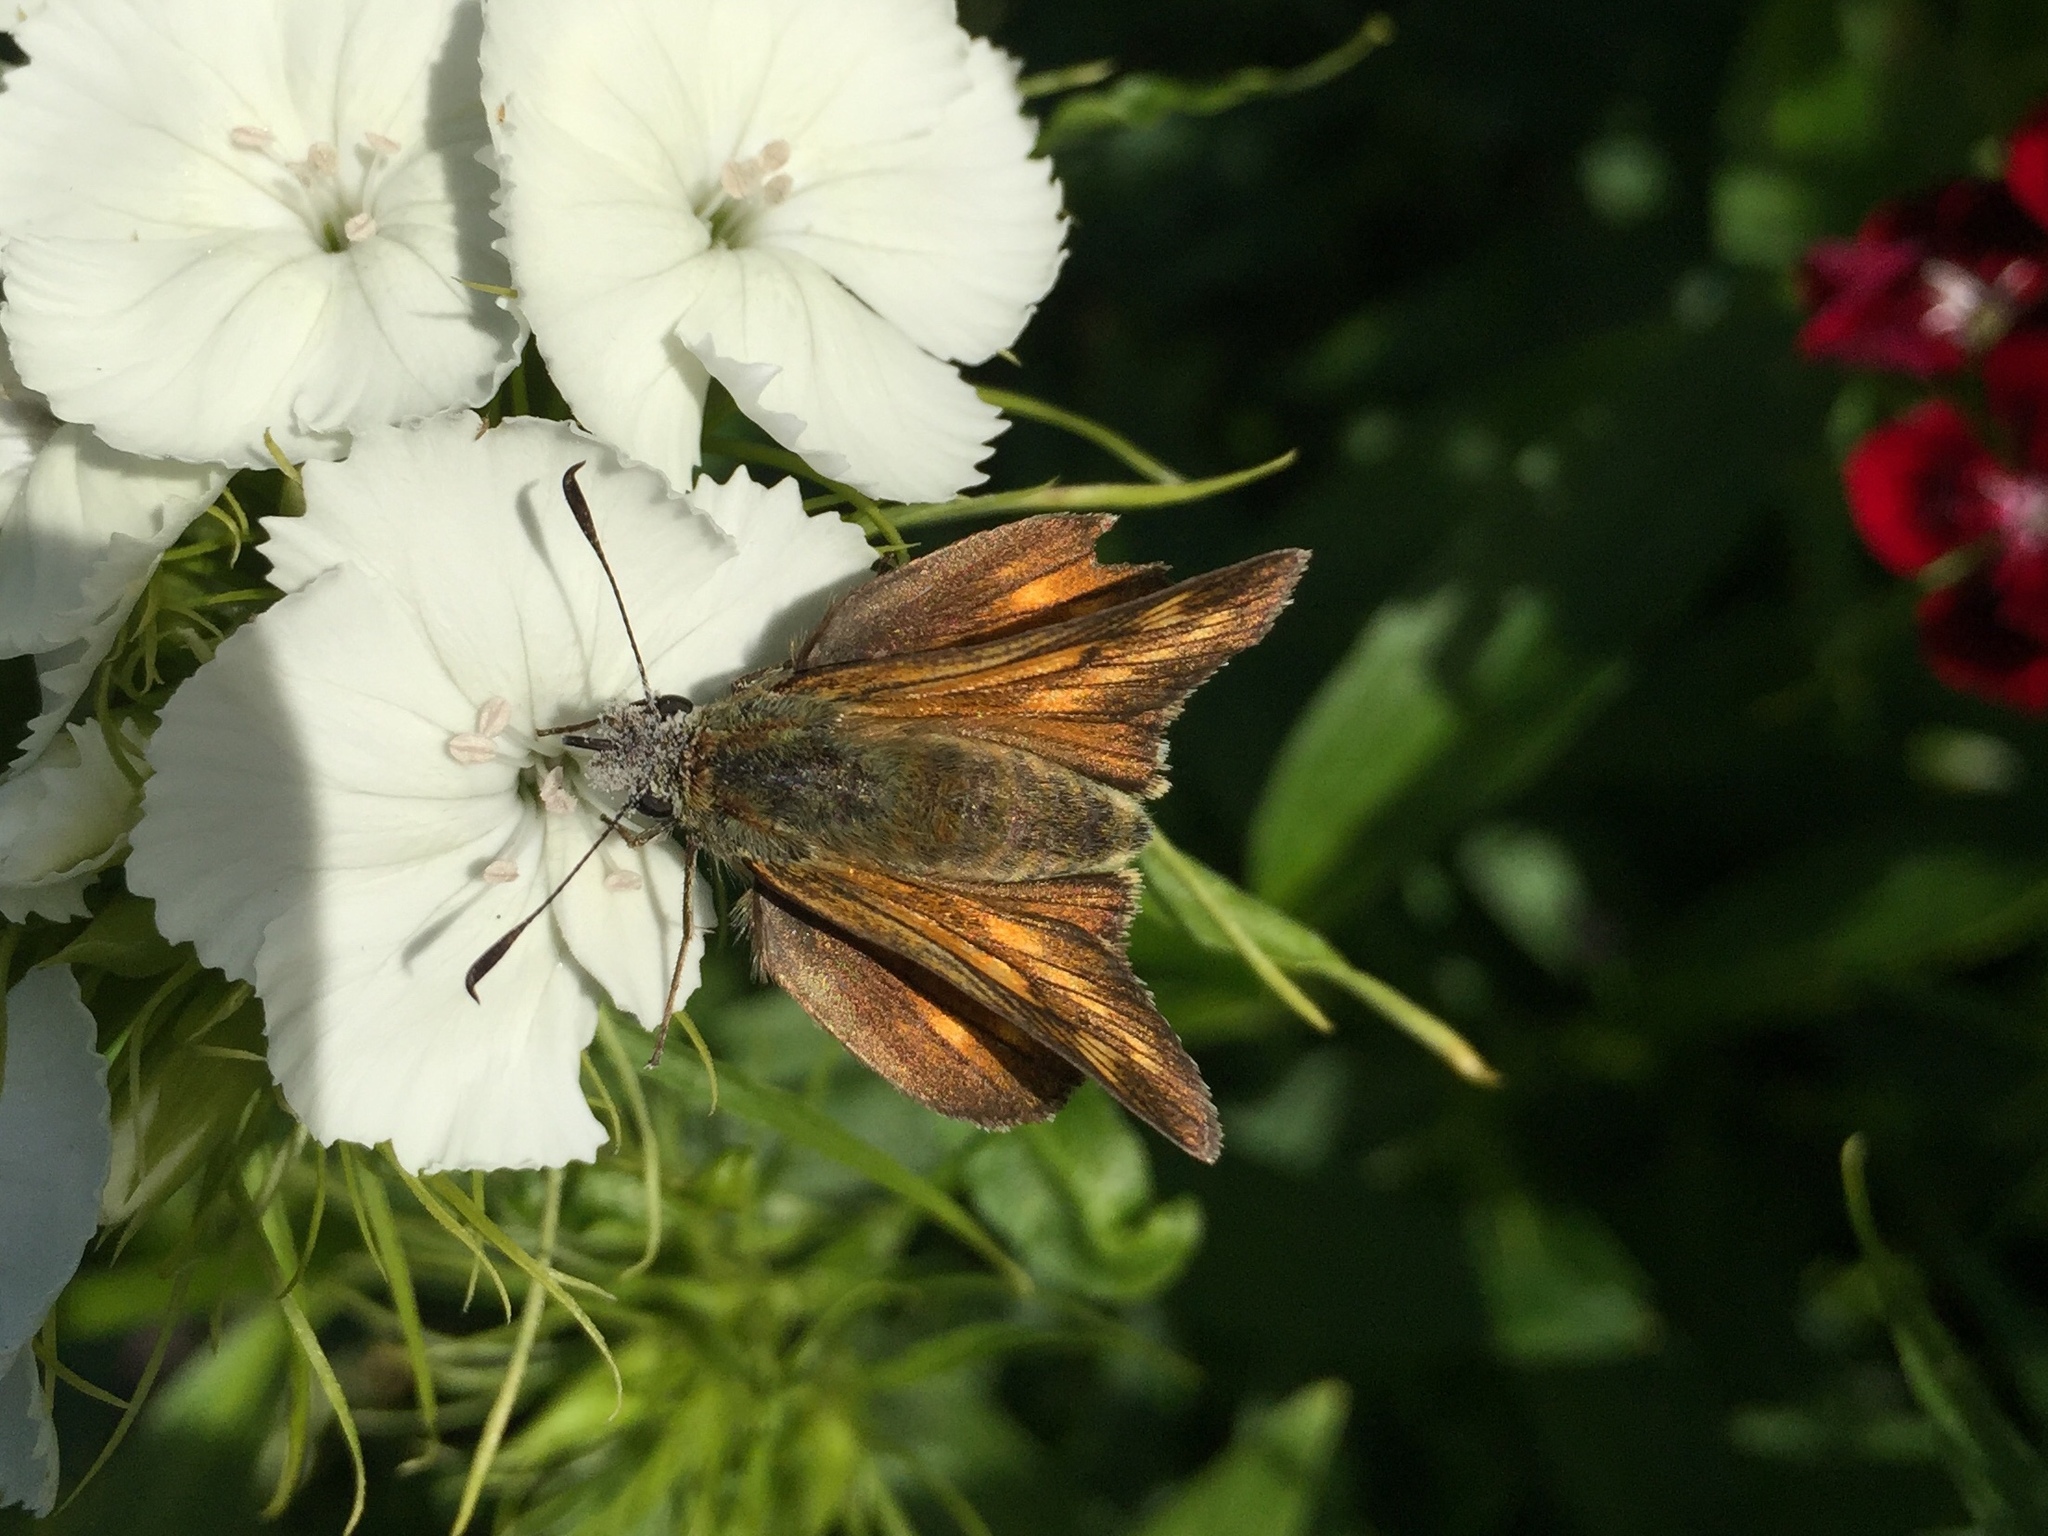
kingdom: Animalia
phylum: Arthropoda
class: Insecta
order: Lepidoptera
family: Hesperiidae
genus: Ochlodes
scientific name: Ochlodes venata
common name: Large skipper
